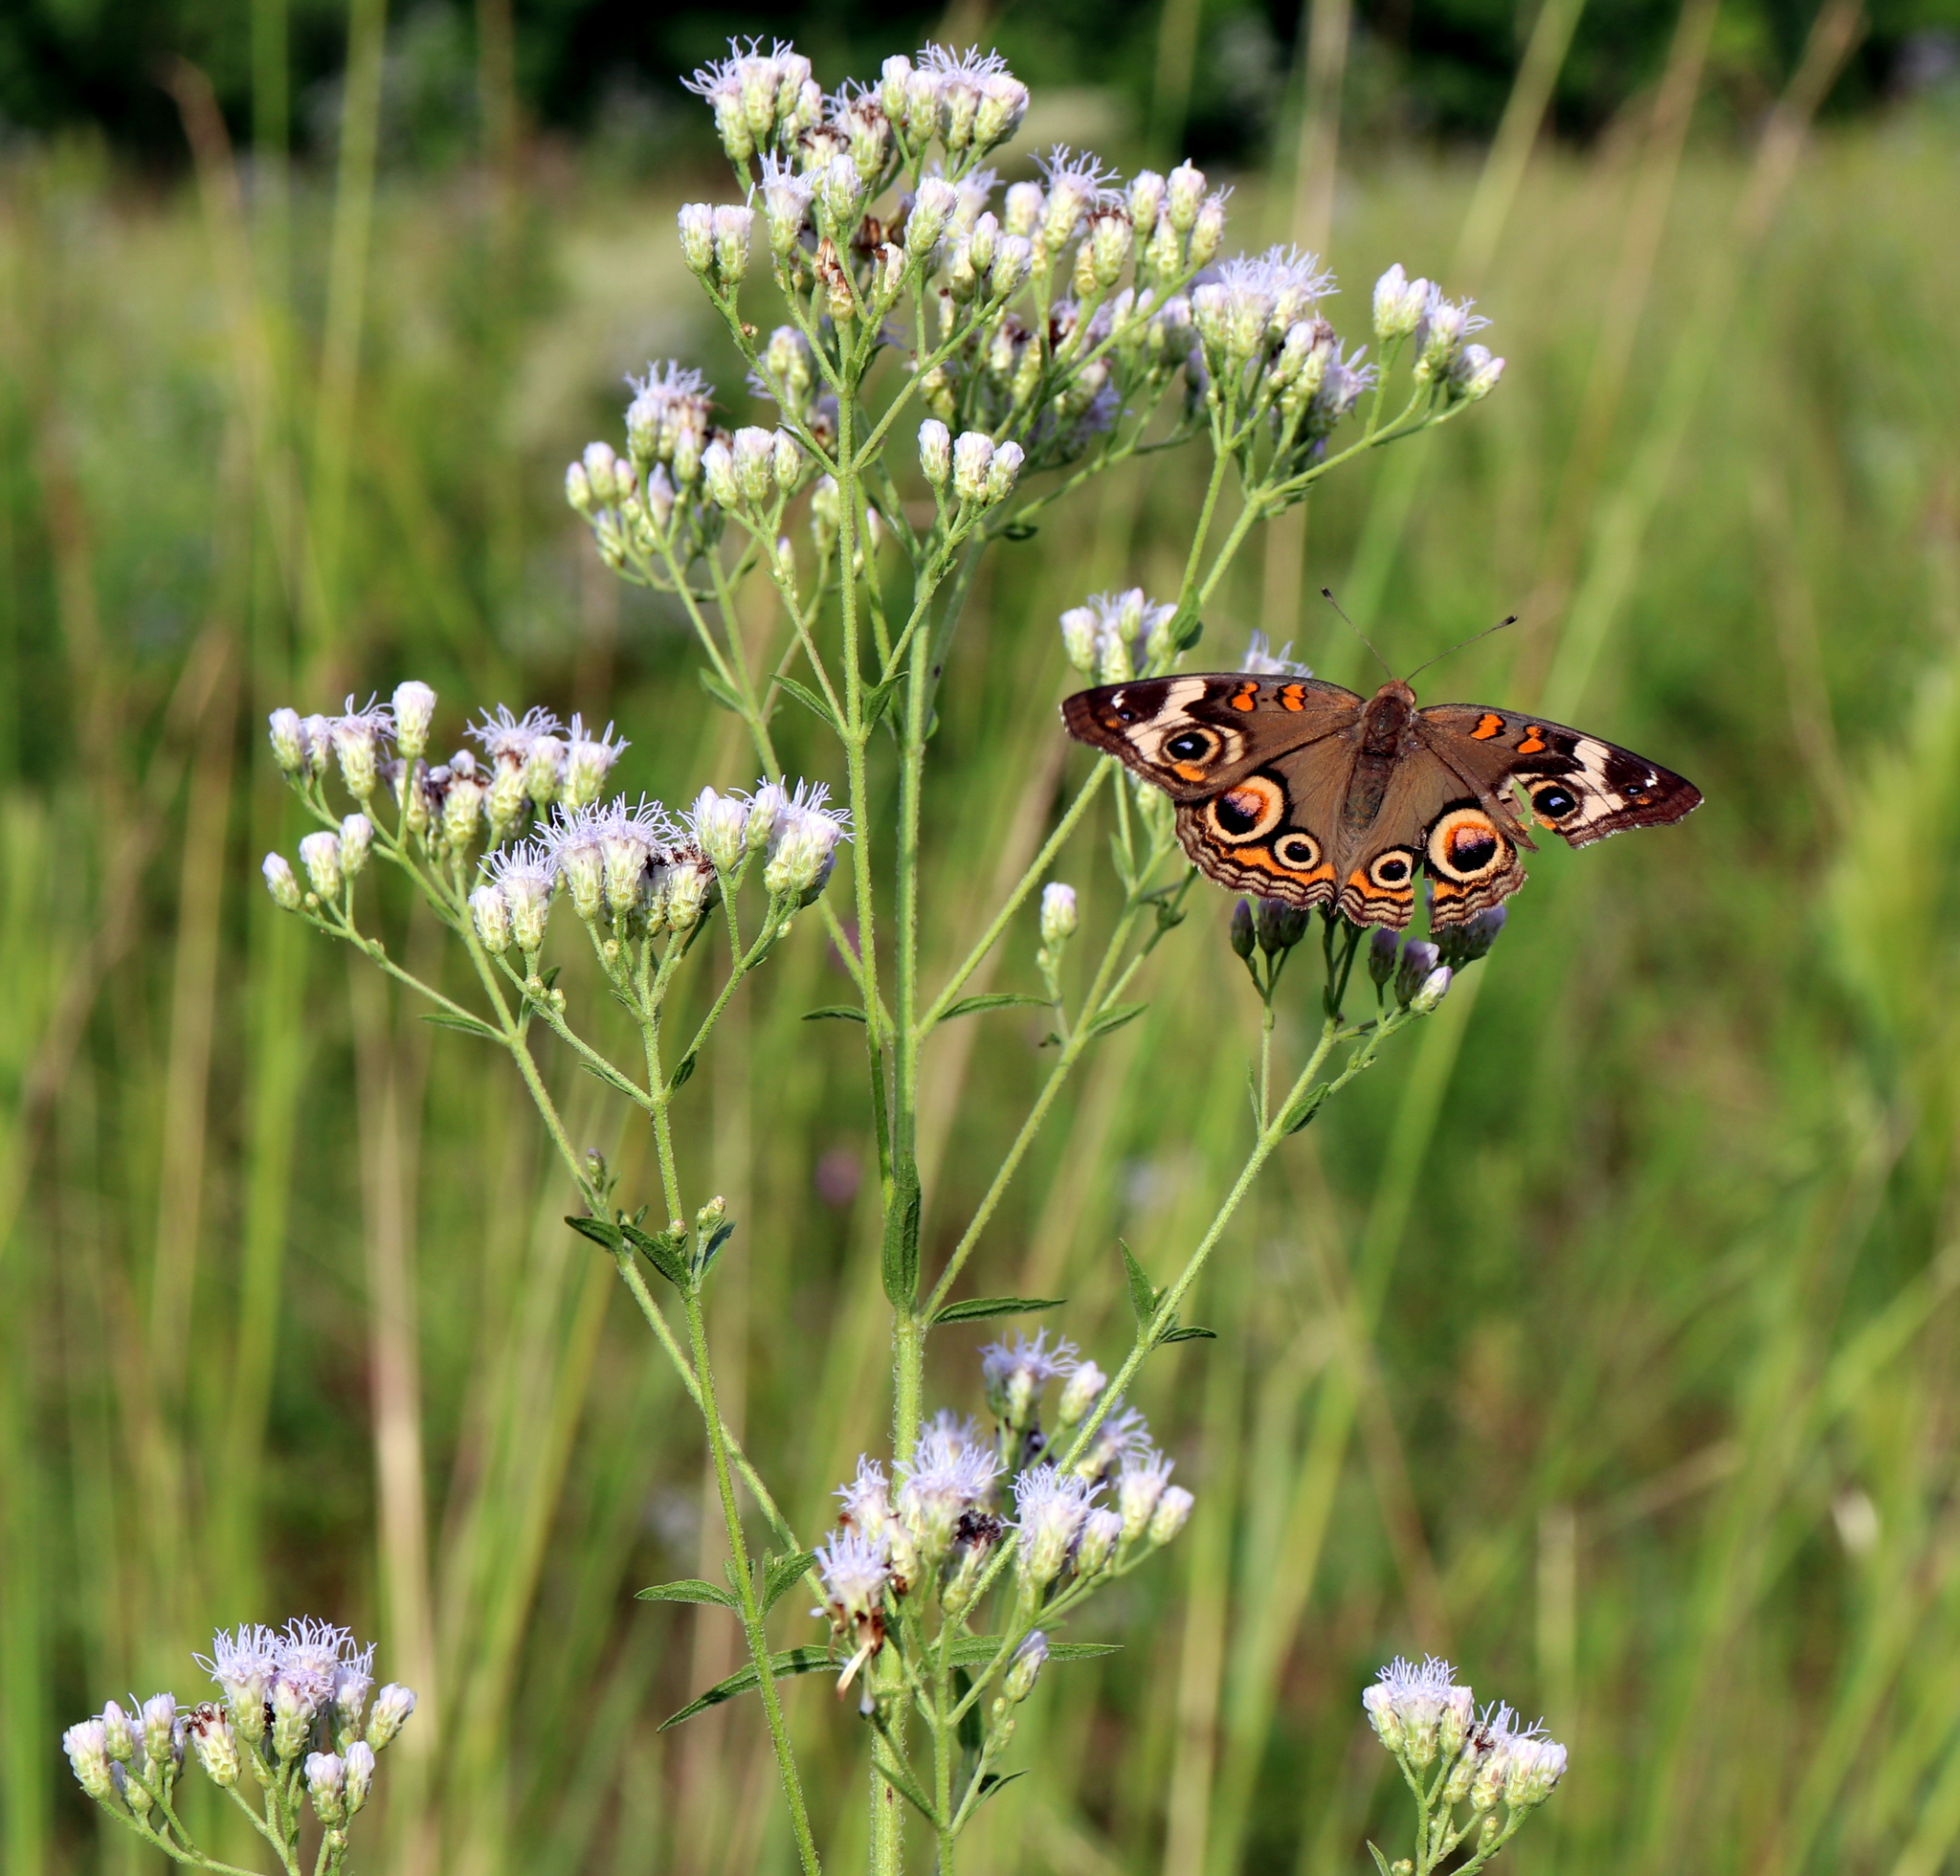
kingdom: Animalia
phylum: Arthropoda
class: Insecta
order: Lepidoptera
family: Nymphalidae
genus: Junonia
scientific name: Junonia coenia
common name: Common buckeye
